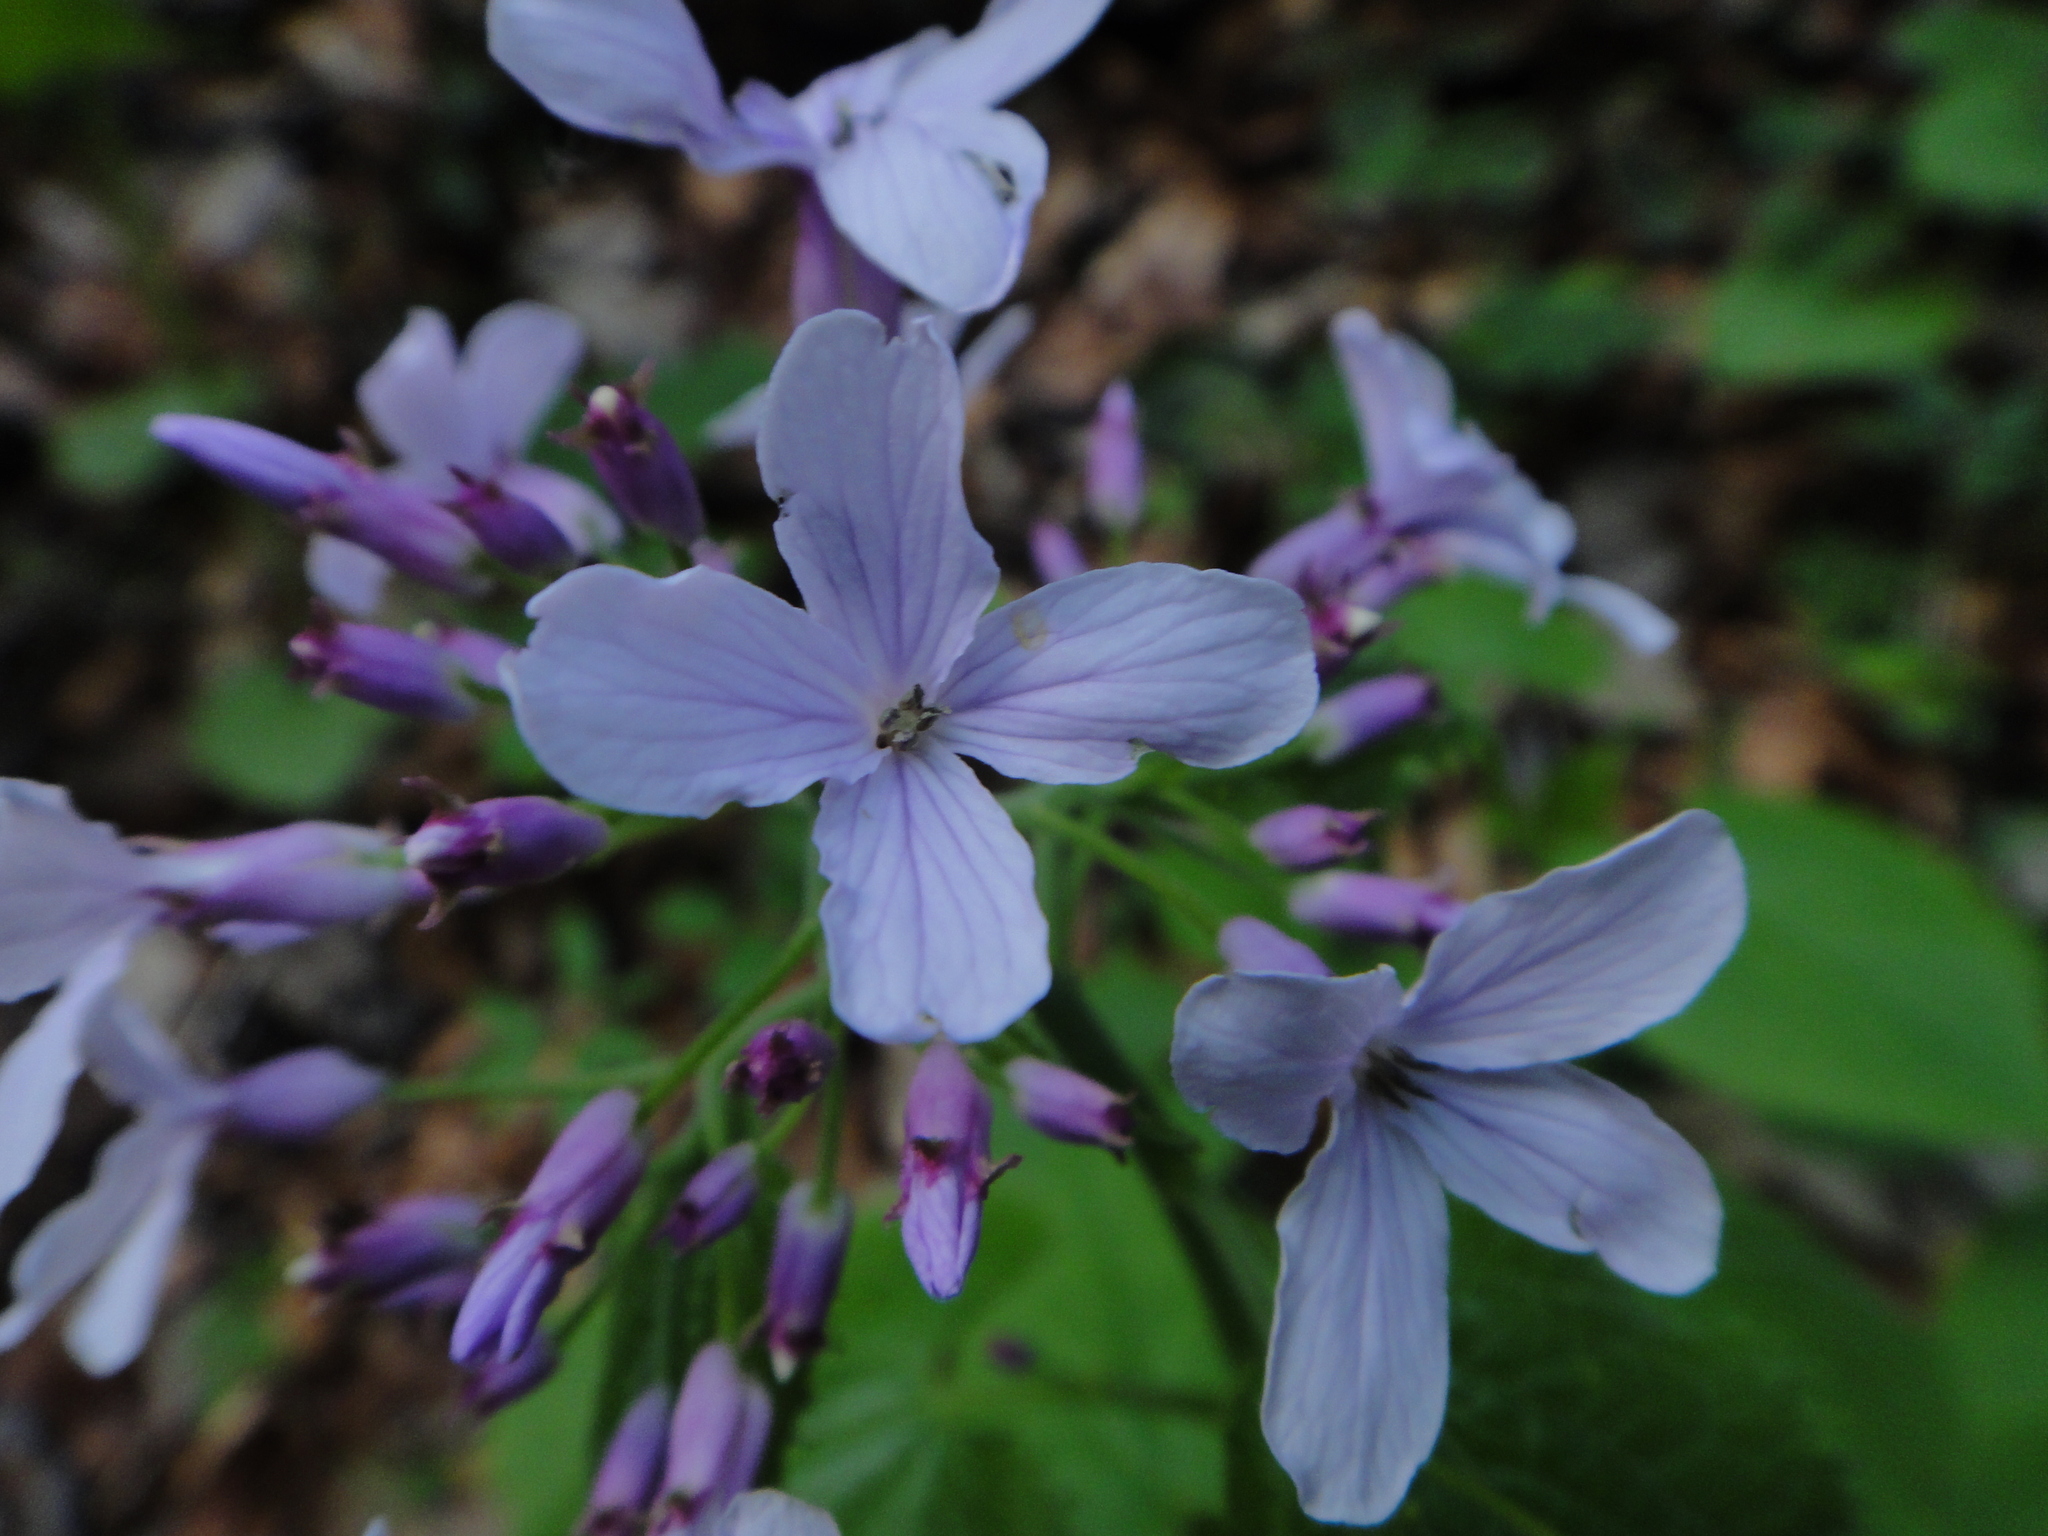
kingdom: Plantae
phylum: Tracheophyta
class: Magnoliopsida
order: Brassicales
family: Brassicaceae
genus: Lunaria
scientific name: Lunaria rediviva
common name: Perennial honesty
